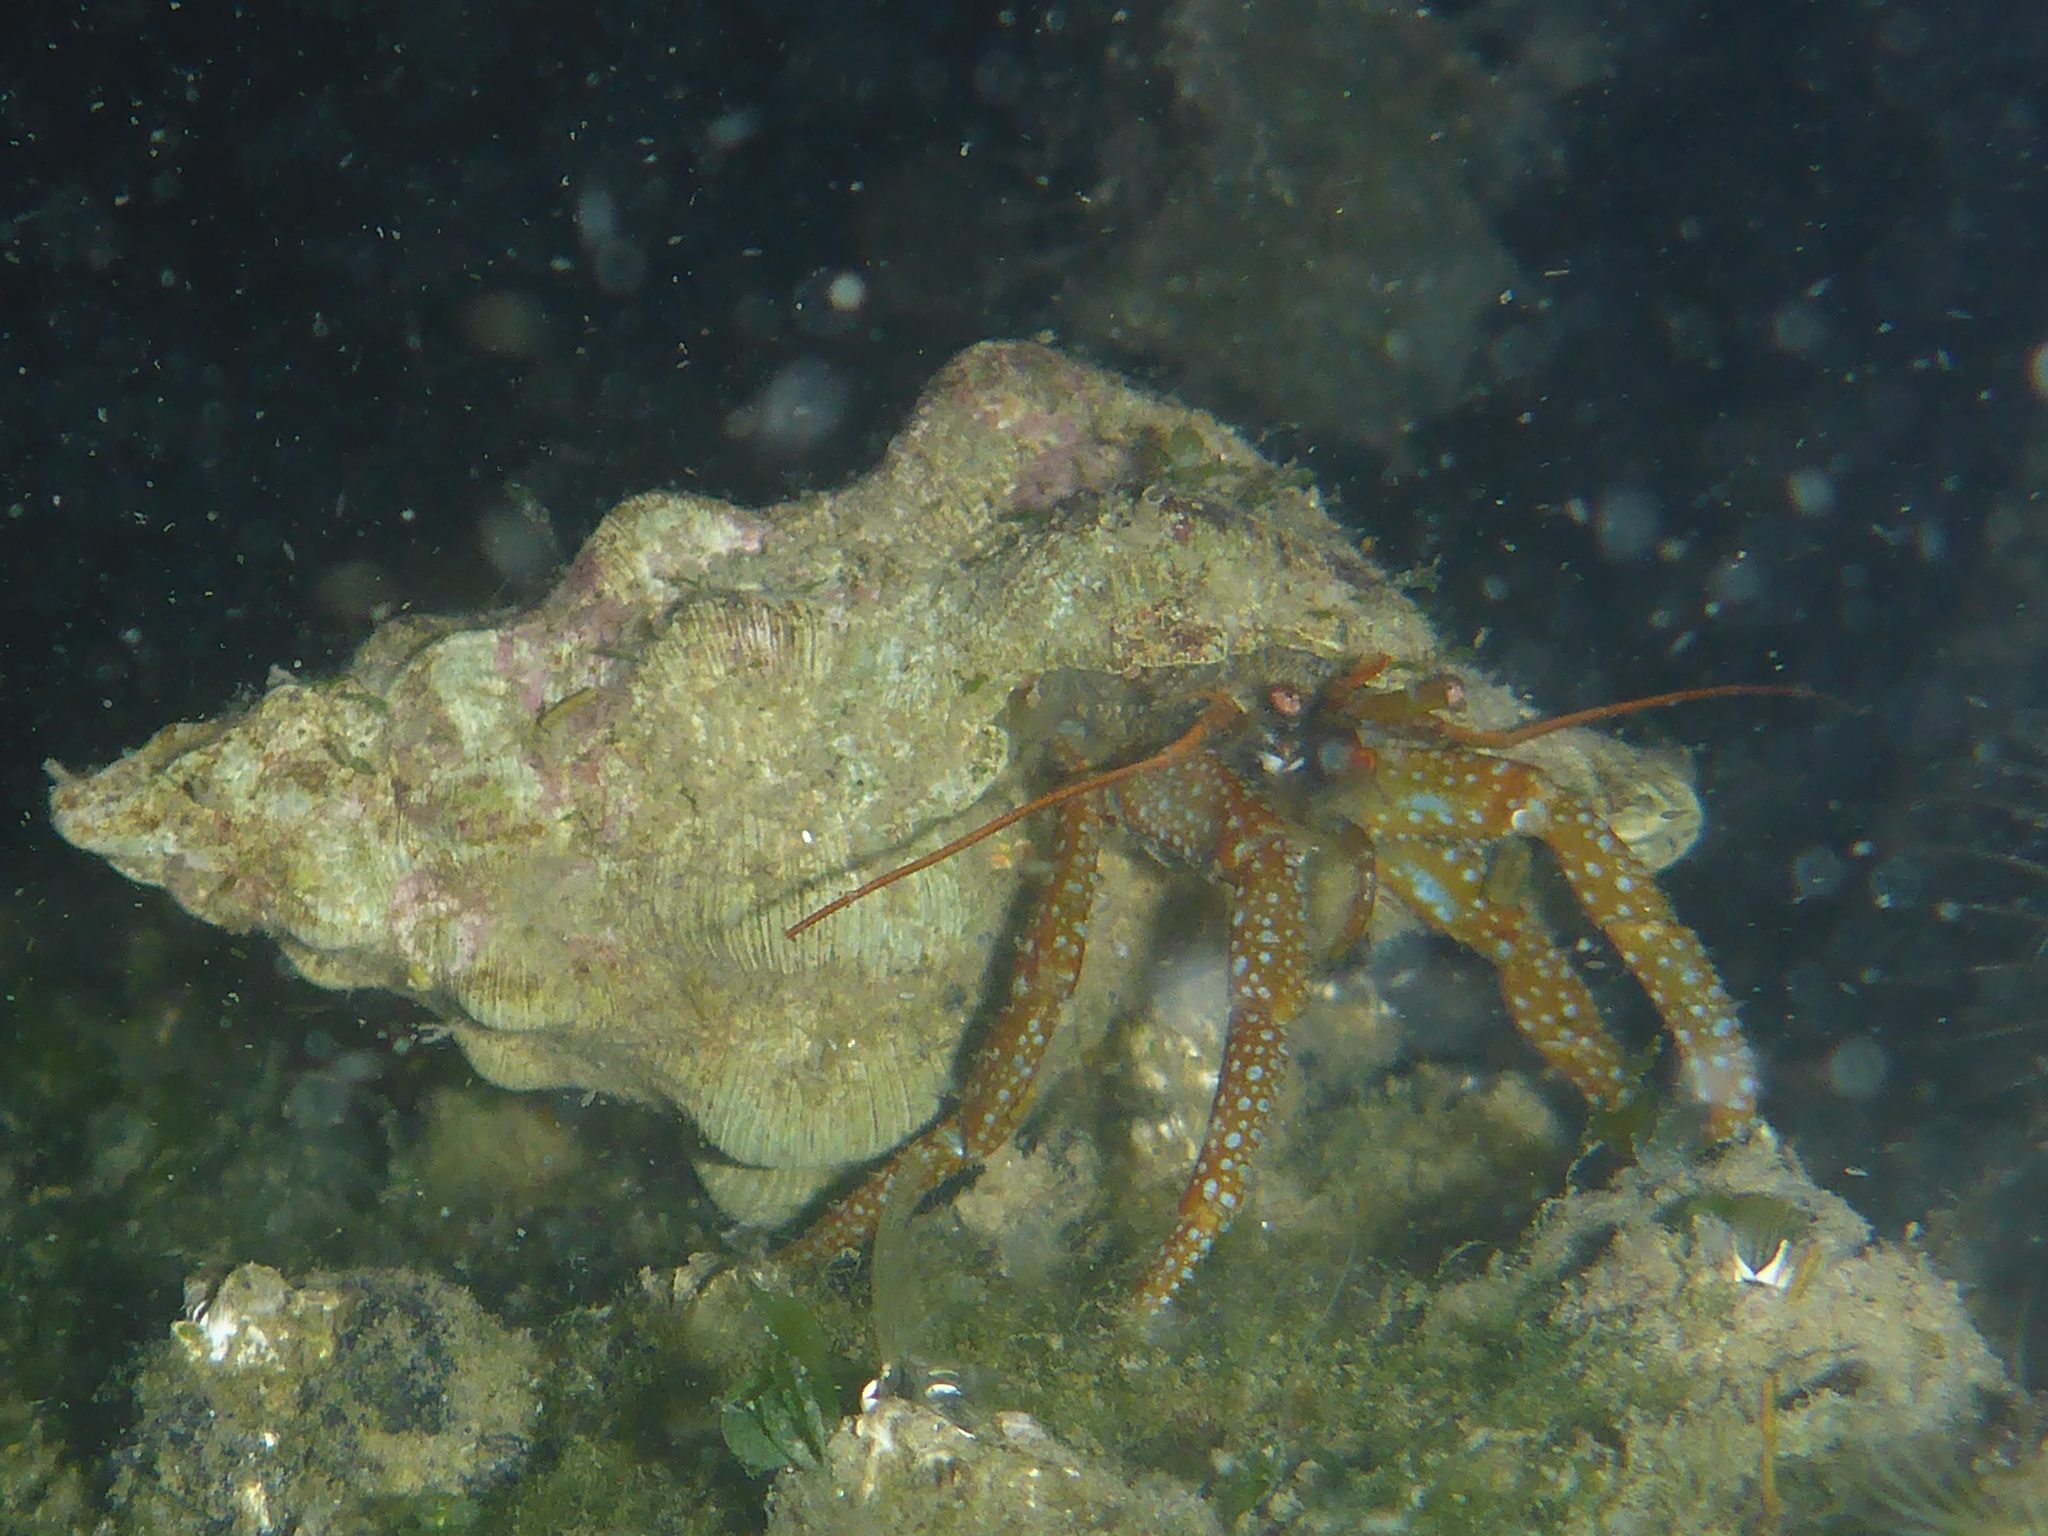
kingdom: Animalia
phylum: Mollusca
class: Gastropoda
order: Neogastropoda
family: Austrosiphonidae
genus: Kelletia
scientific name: Kelletia kelletii
